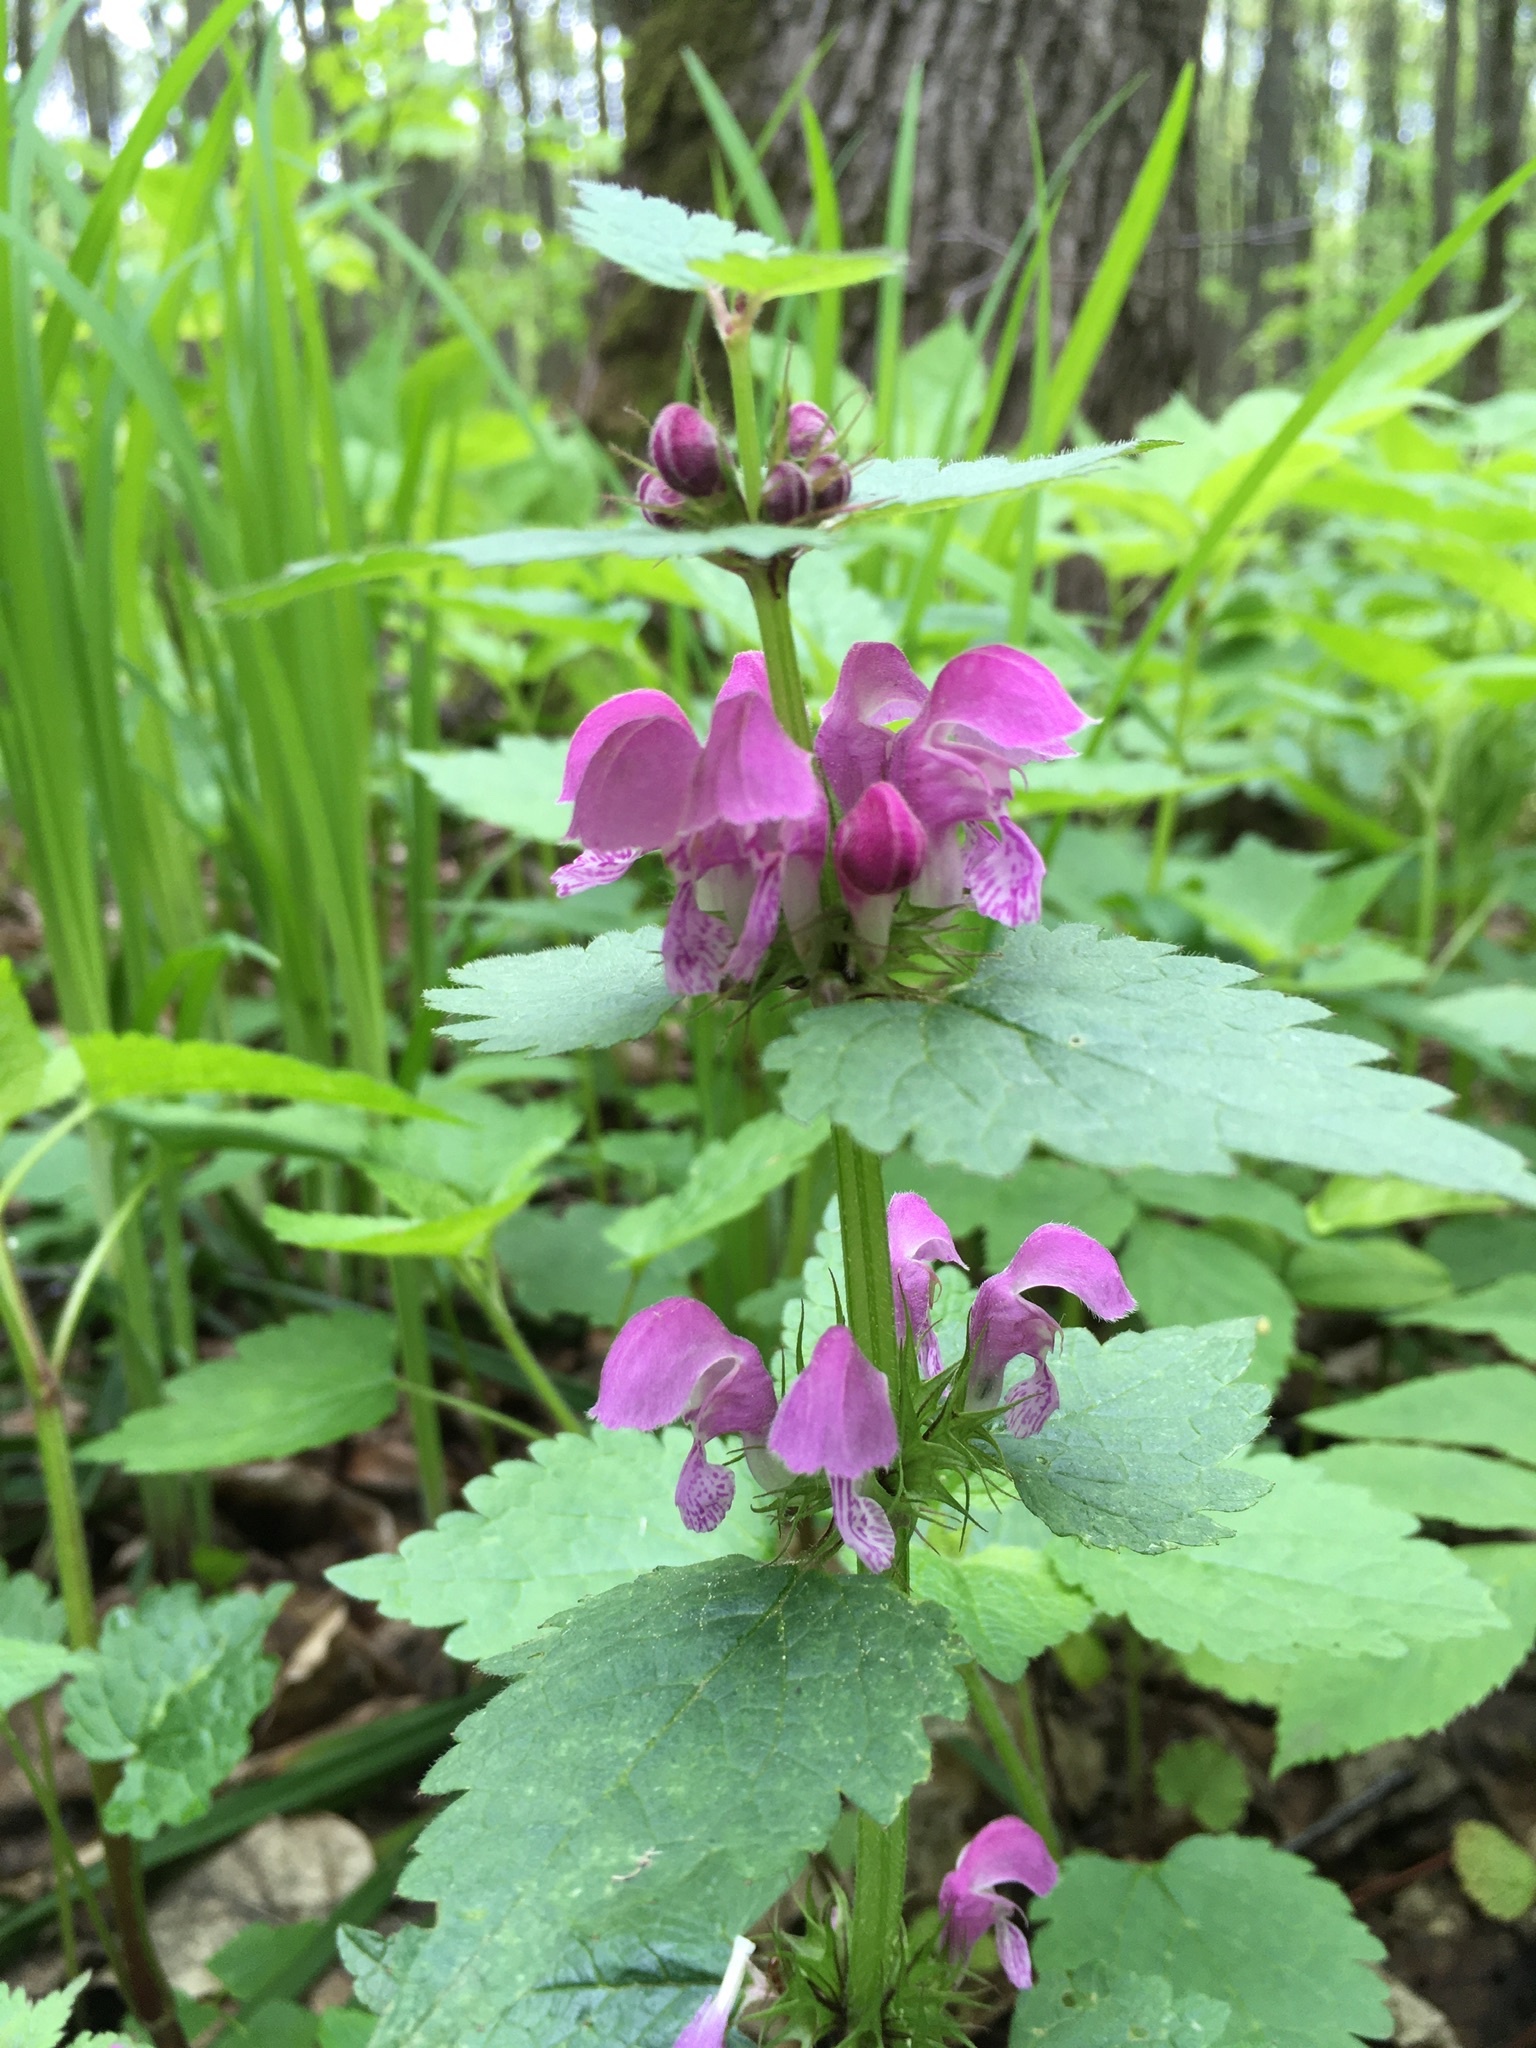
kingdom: Plantae
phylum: Tracheophyta
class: Magnoliopsida
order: Lamiales
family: Lamiaceae
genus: Lamium
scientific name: Lamium maculatum
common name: Spotted dead-nettle
